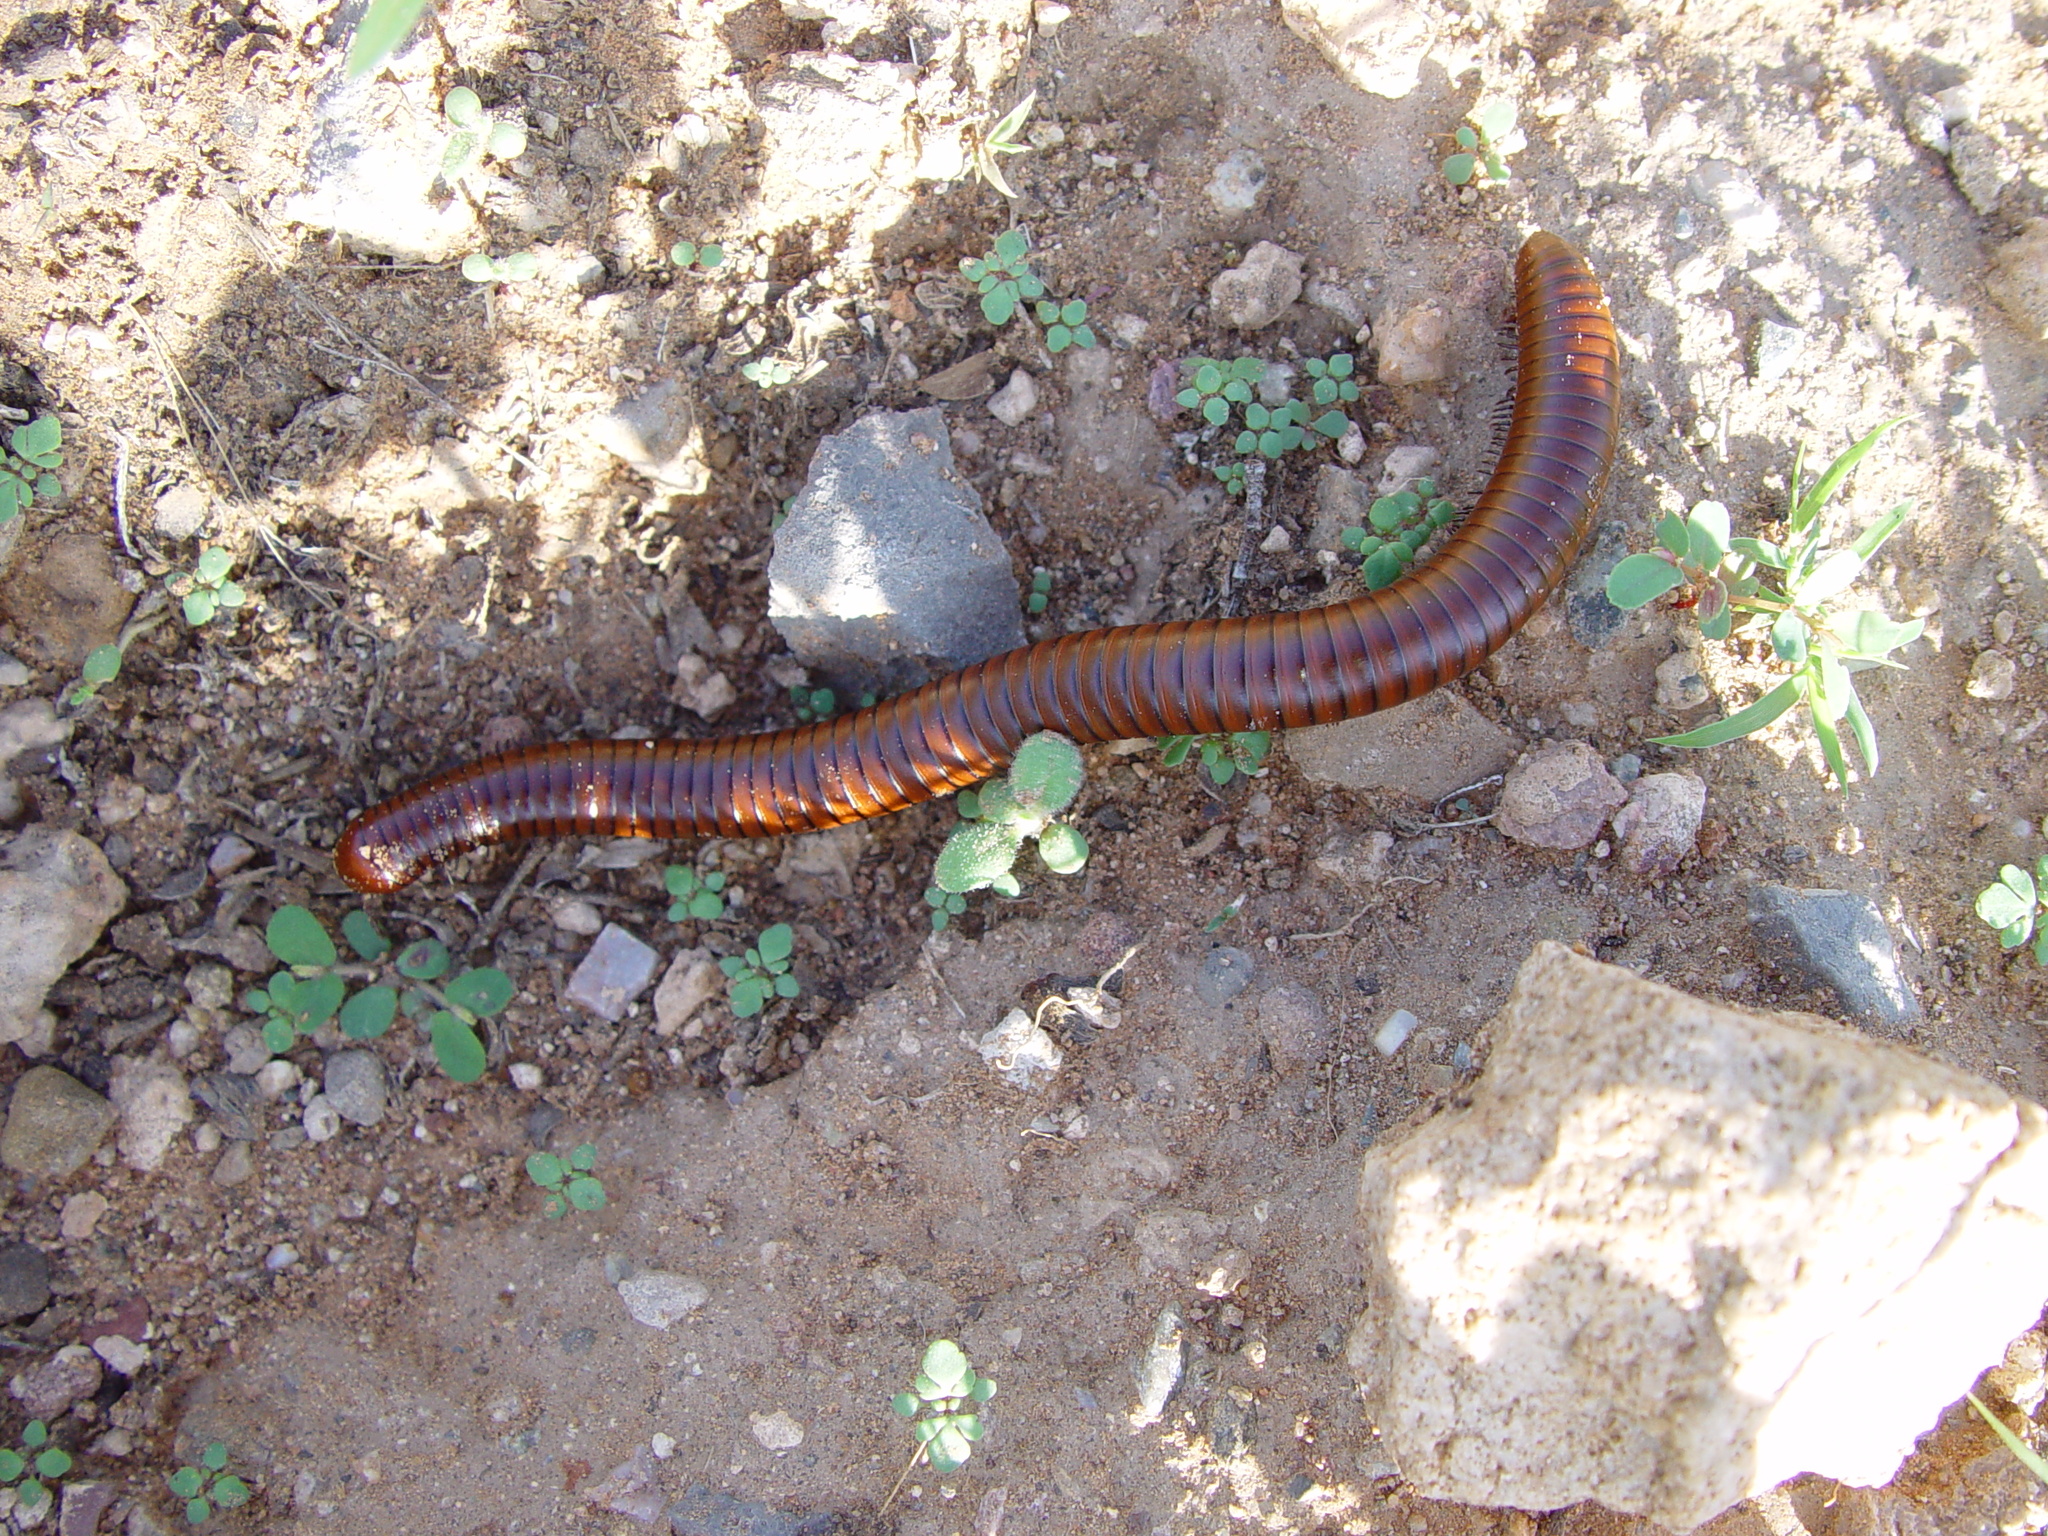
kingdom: Animalia
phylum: Arthropoda
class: Diplopoda
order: Spirostreptida
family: Spirostreptidae
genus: Orthoporus
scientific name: Orthoporus ornatus
